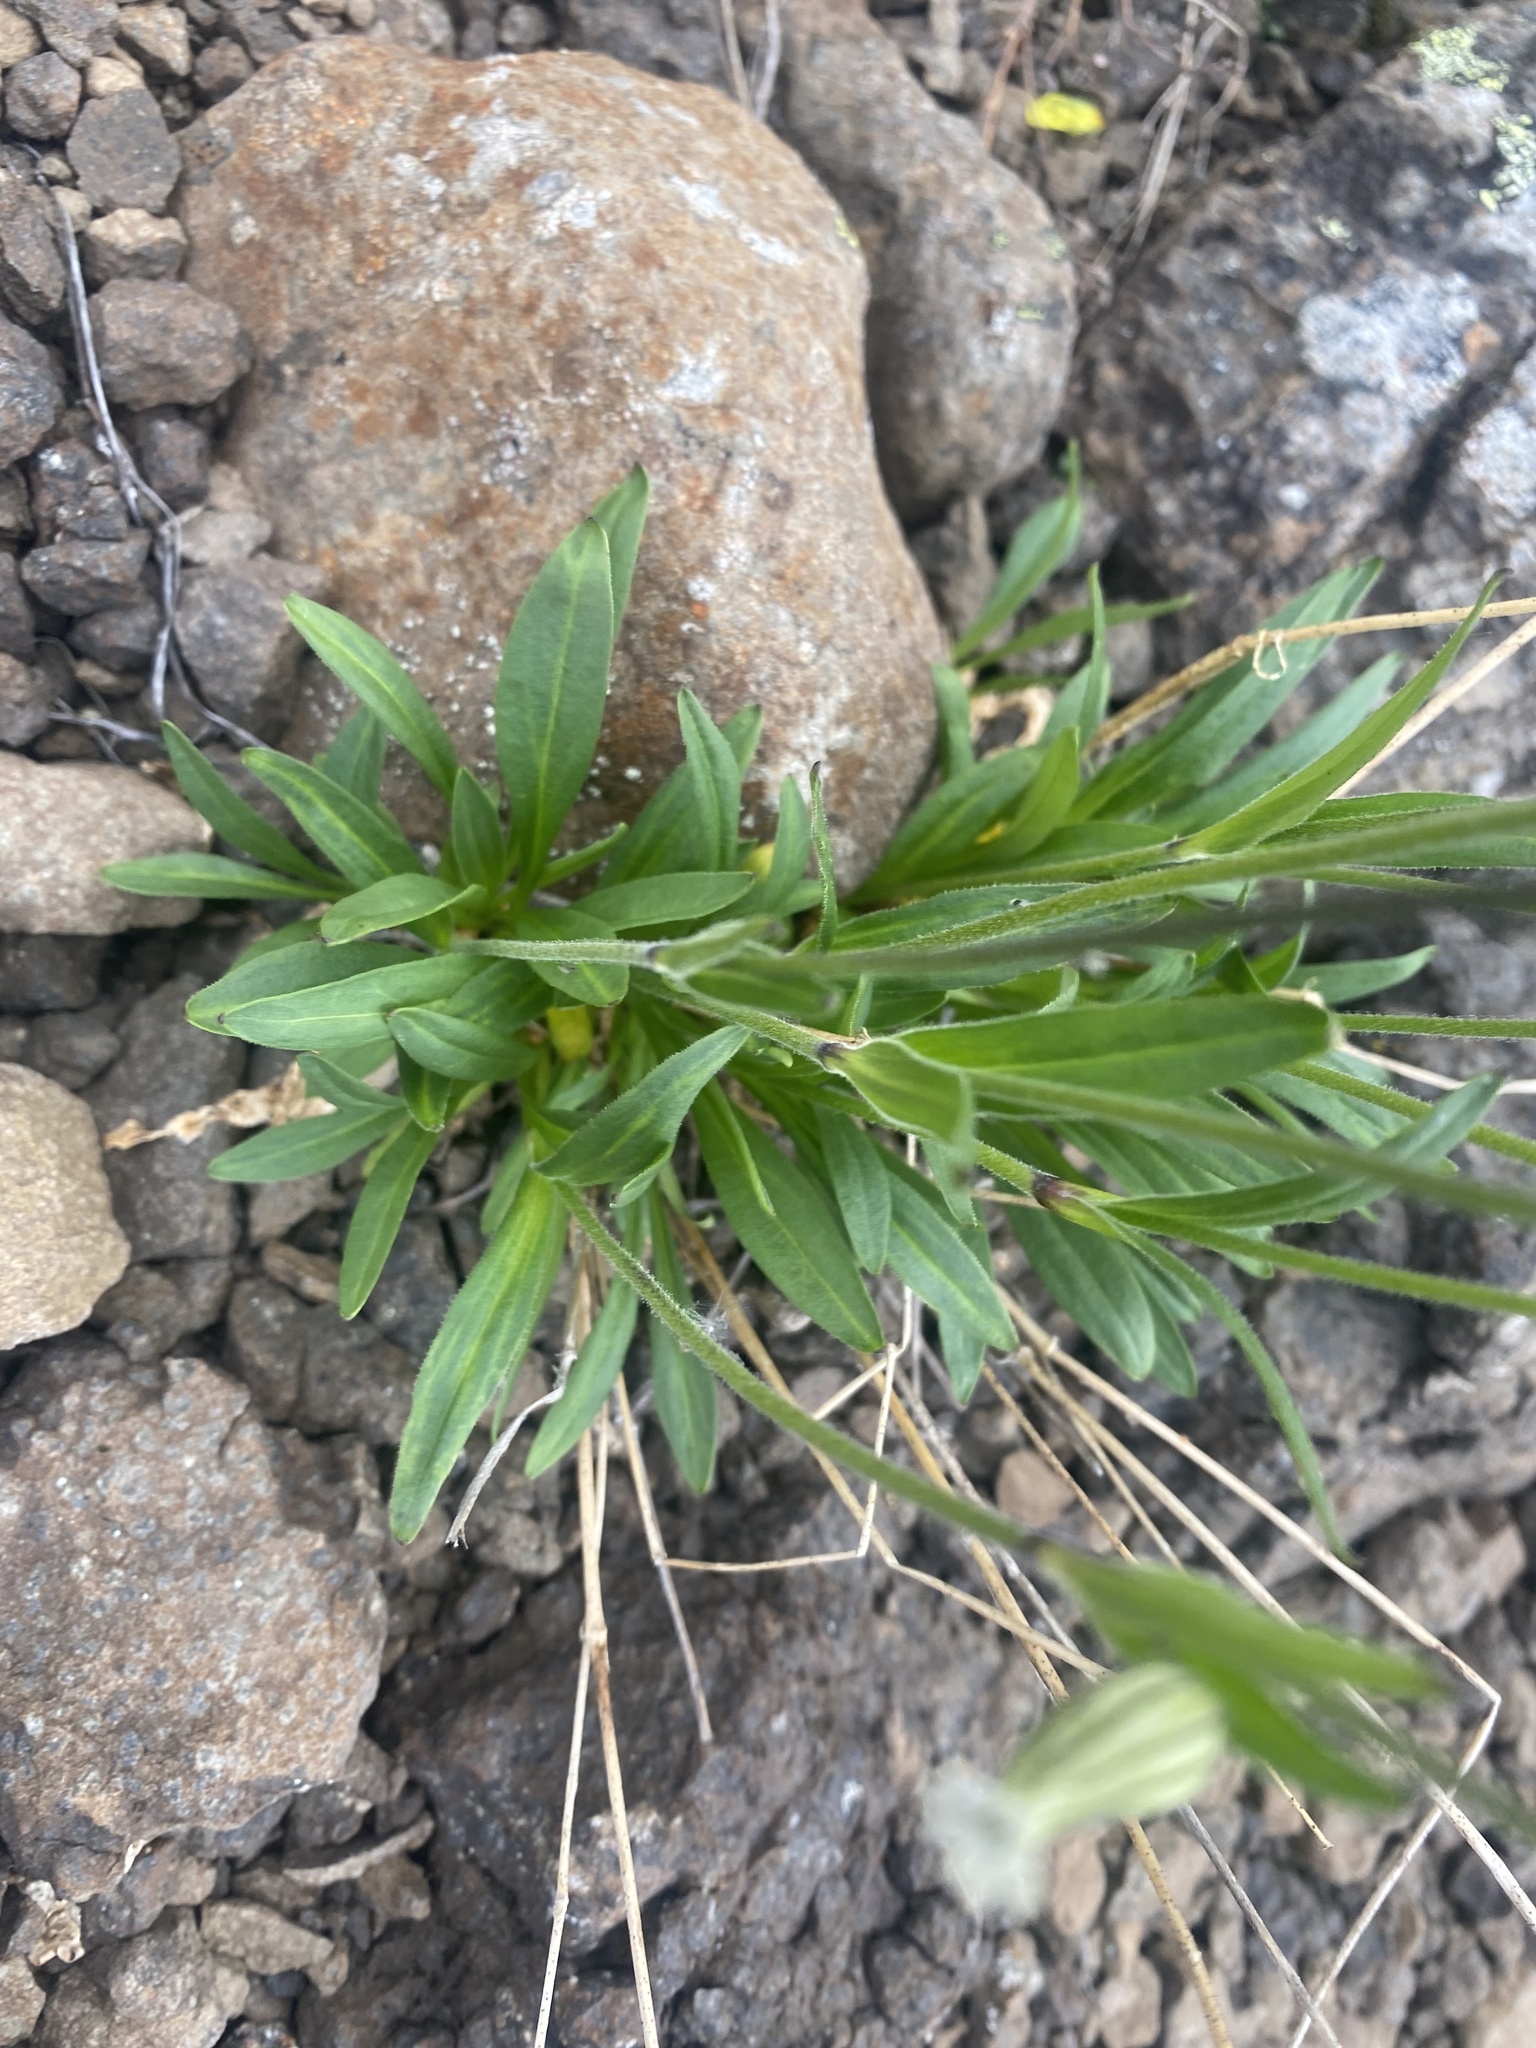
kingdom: Plantae
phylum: Tracheophyta
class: Magnoliopsida
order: Caryophyllales
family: Caryophyllaceae
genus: Silene
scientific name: Silene wahlbergella
